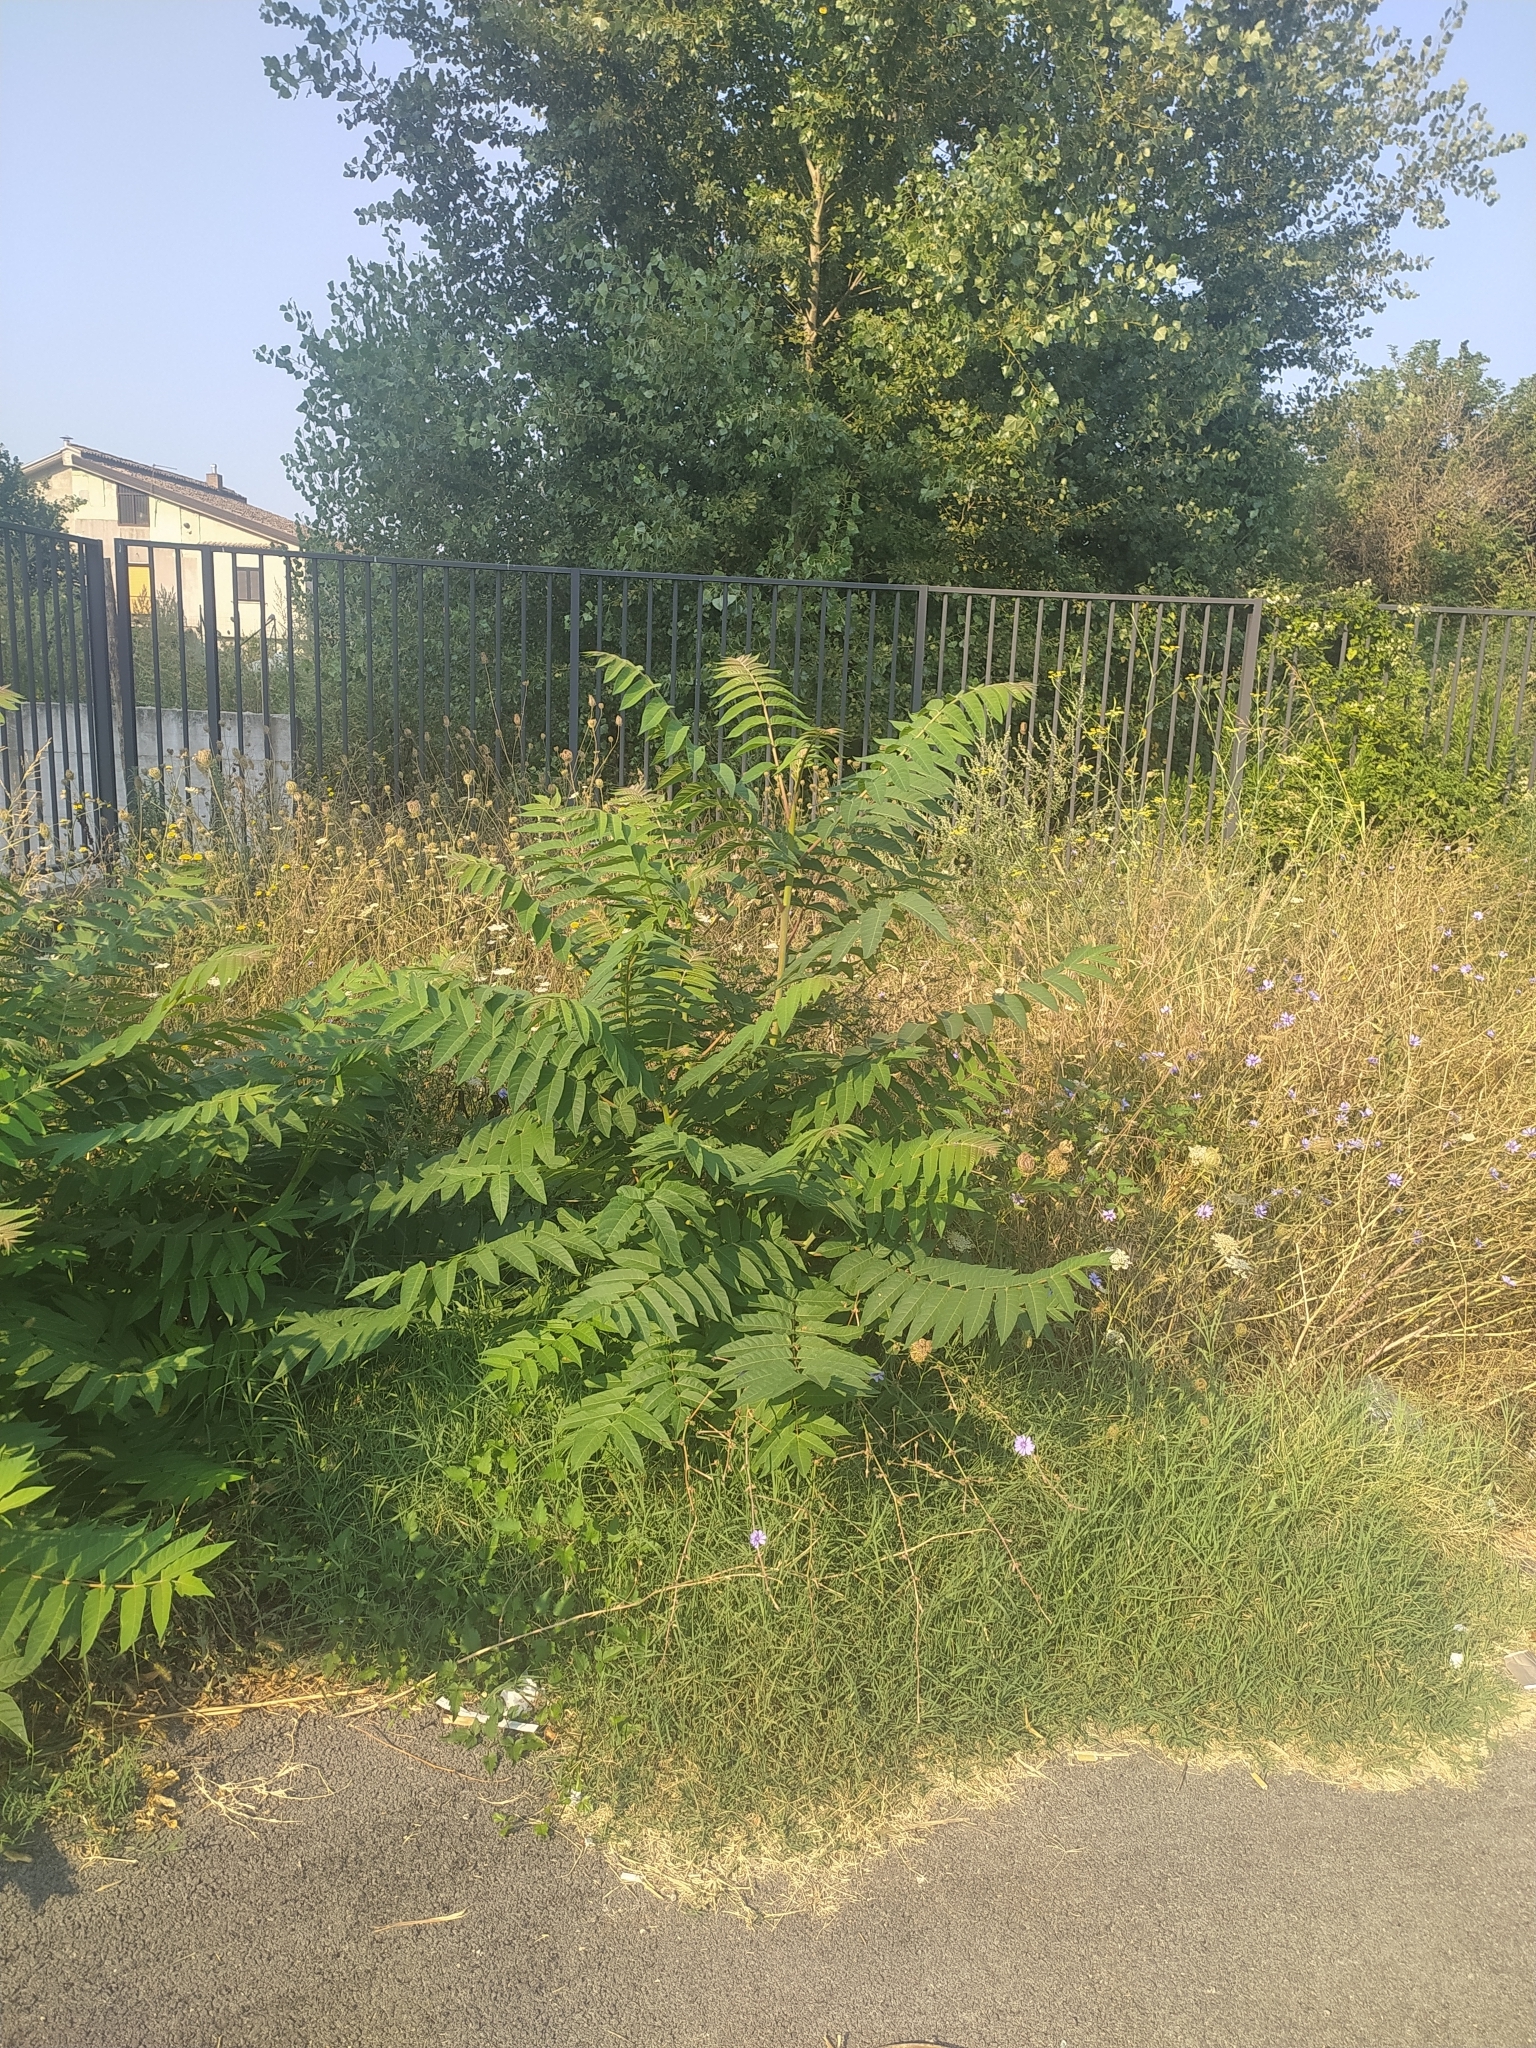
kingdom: Plantae
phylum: Tracheophyta
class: Magnoliopsida
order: Sapindales
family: Simaroubaceae
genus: Ailanthus
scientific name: Ailanthus altissima
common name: Tree-of-heaven
